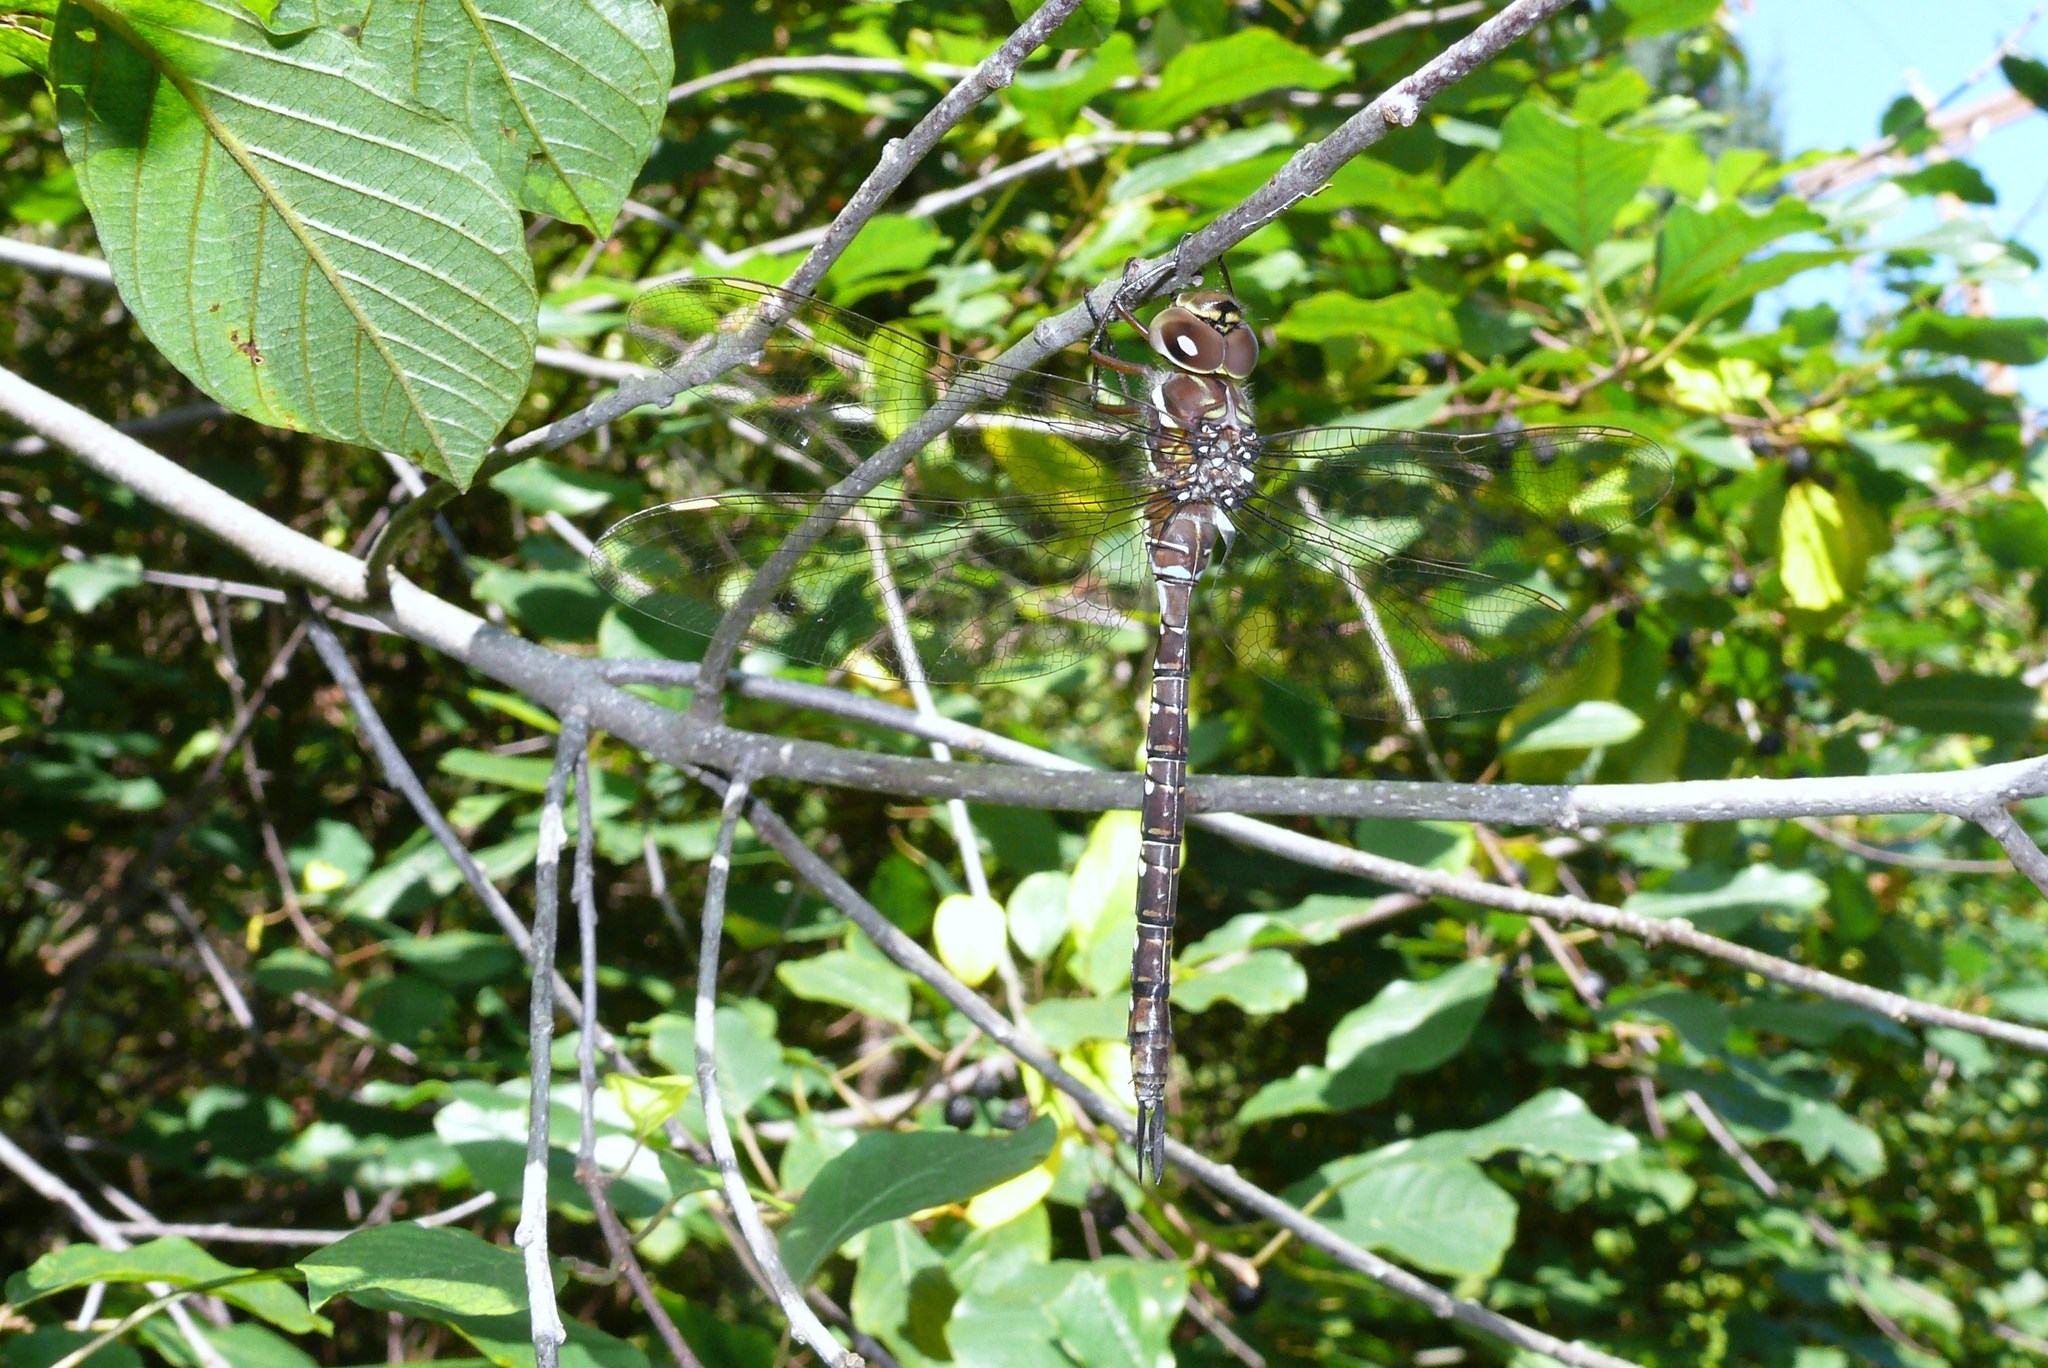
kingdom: Animalia
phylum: Arthropoda
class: Insecta
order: Odonata
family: Aeshnidae
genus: Aeshna
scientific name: Aeshna umbrosa
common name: Shadow darner
